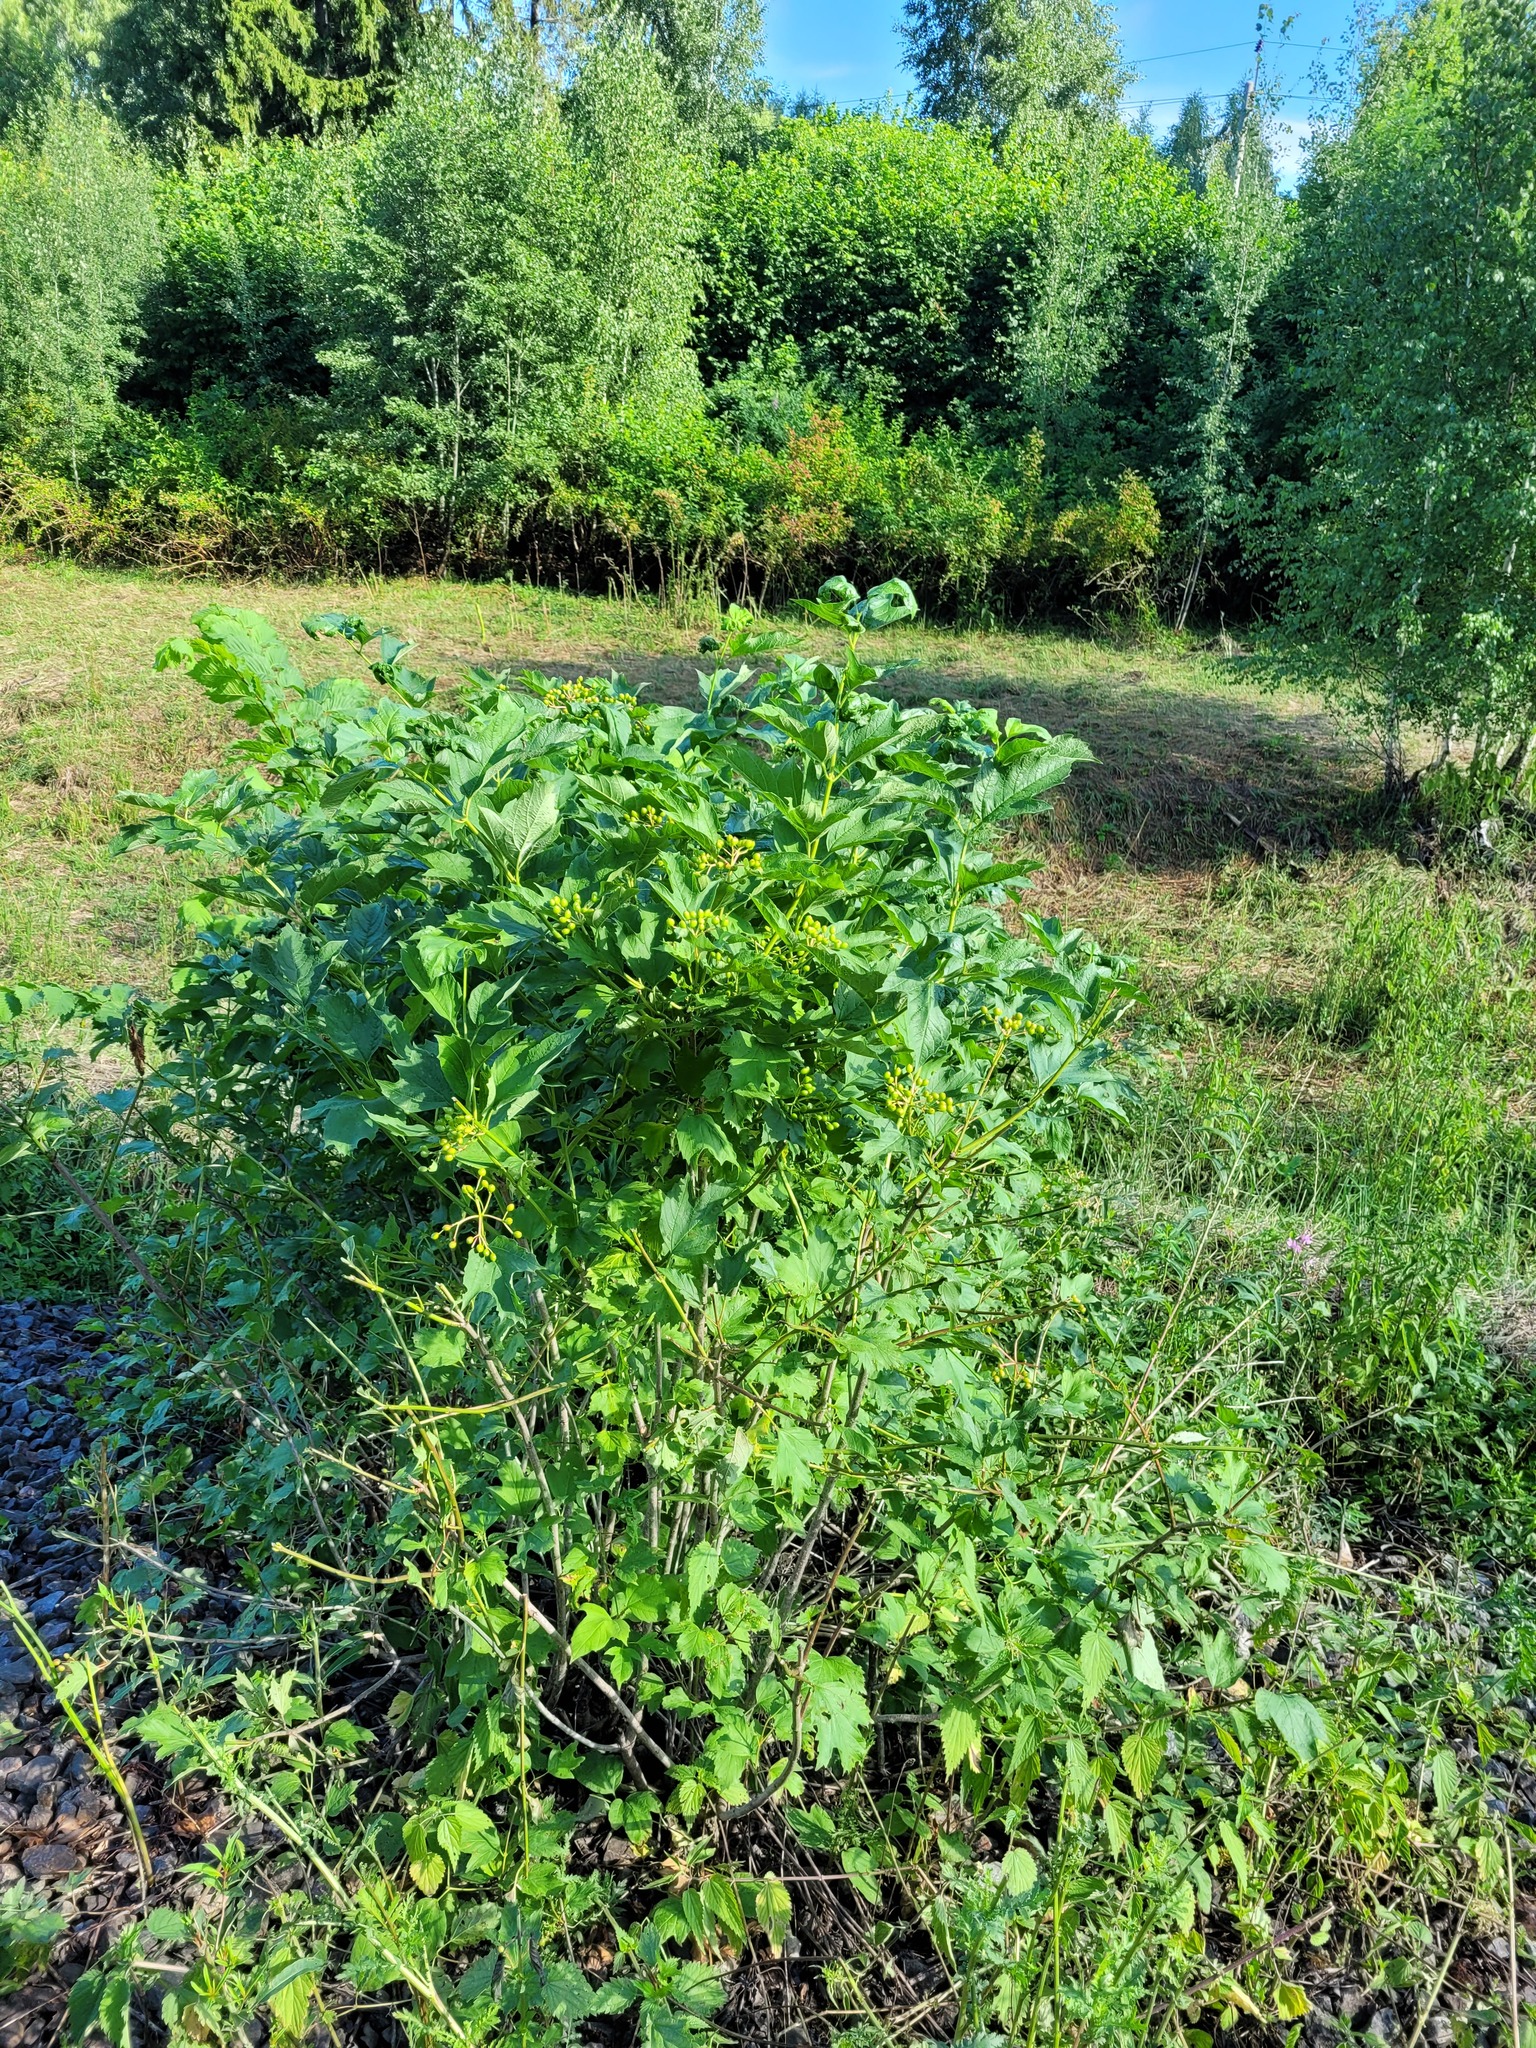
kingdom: Plantae
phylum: Tracheophyta
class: Magnoliopsida
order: Dipsacales
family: Viburnaceae
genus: Viburnum
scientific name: Viburnum opulus
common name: Guelder-rose
